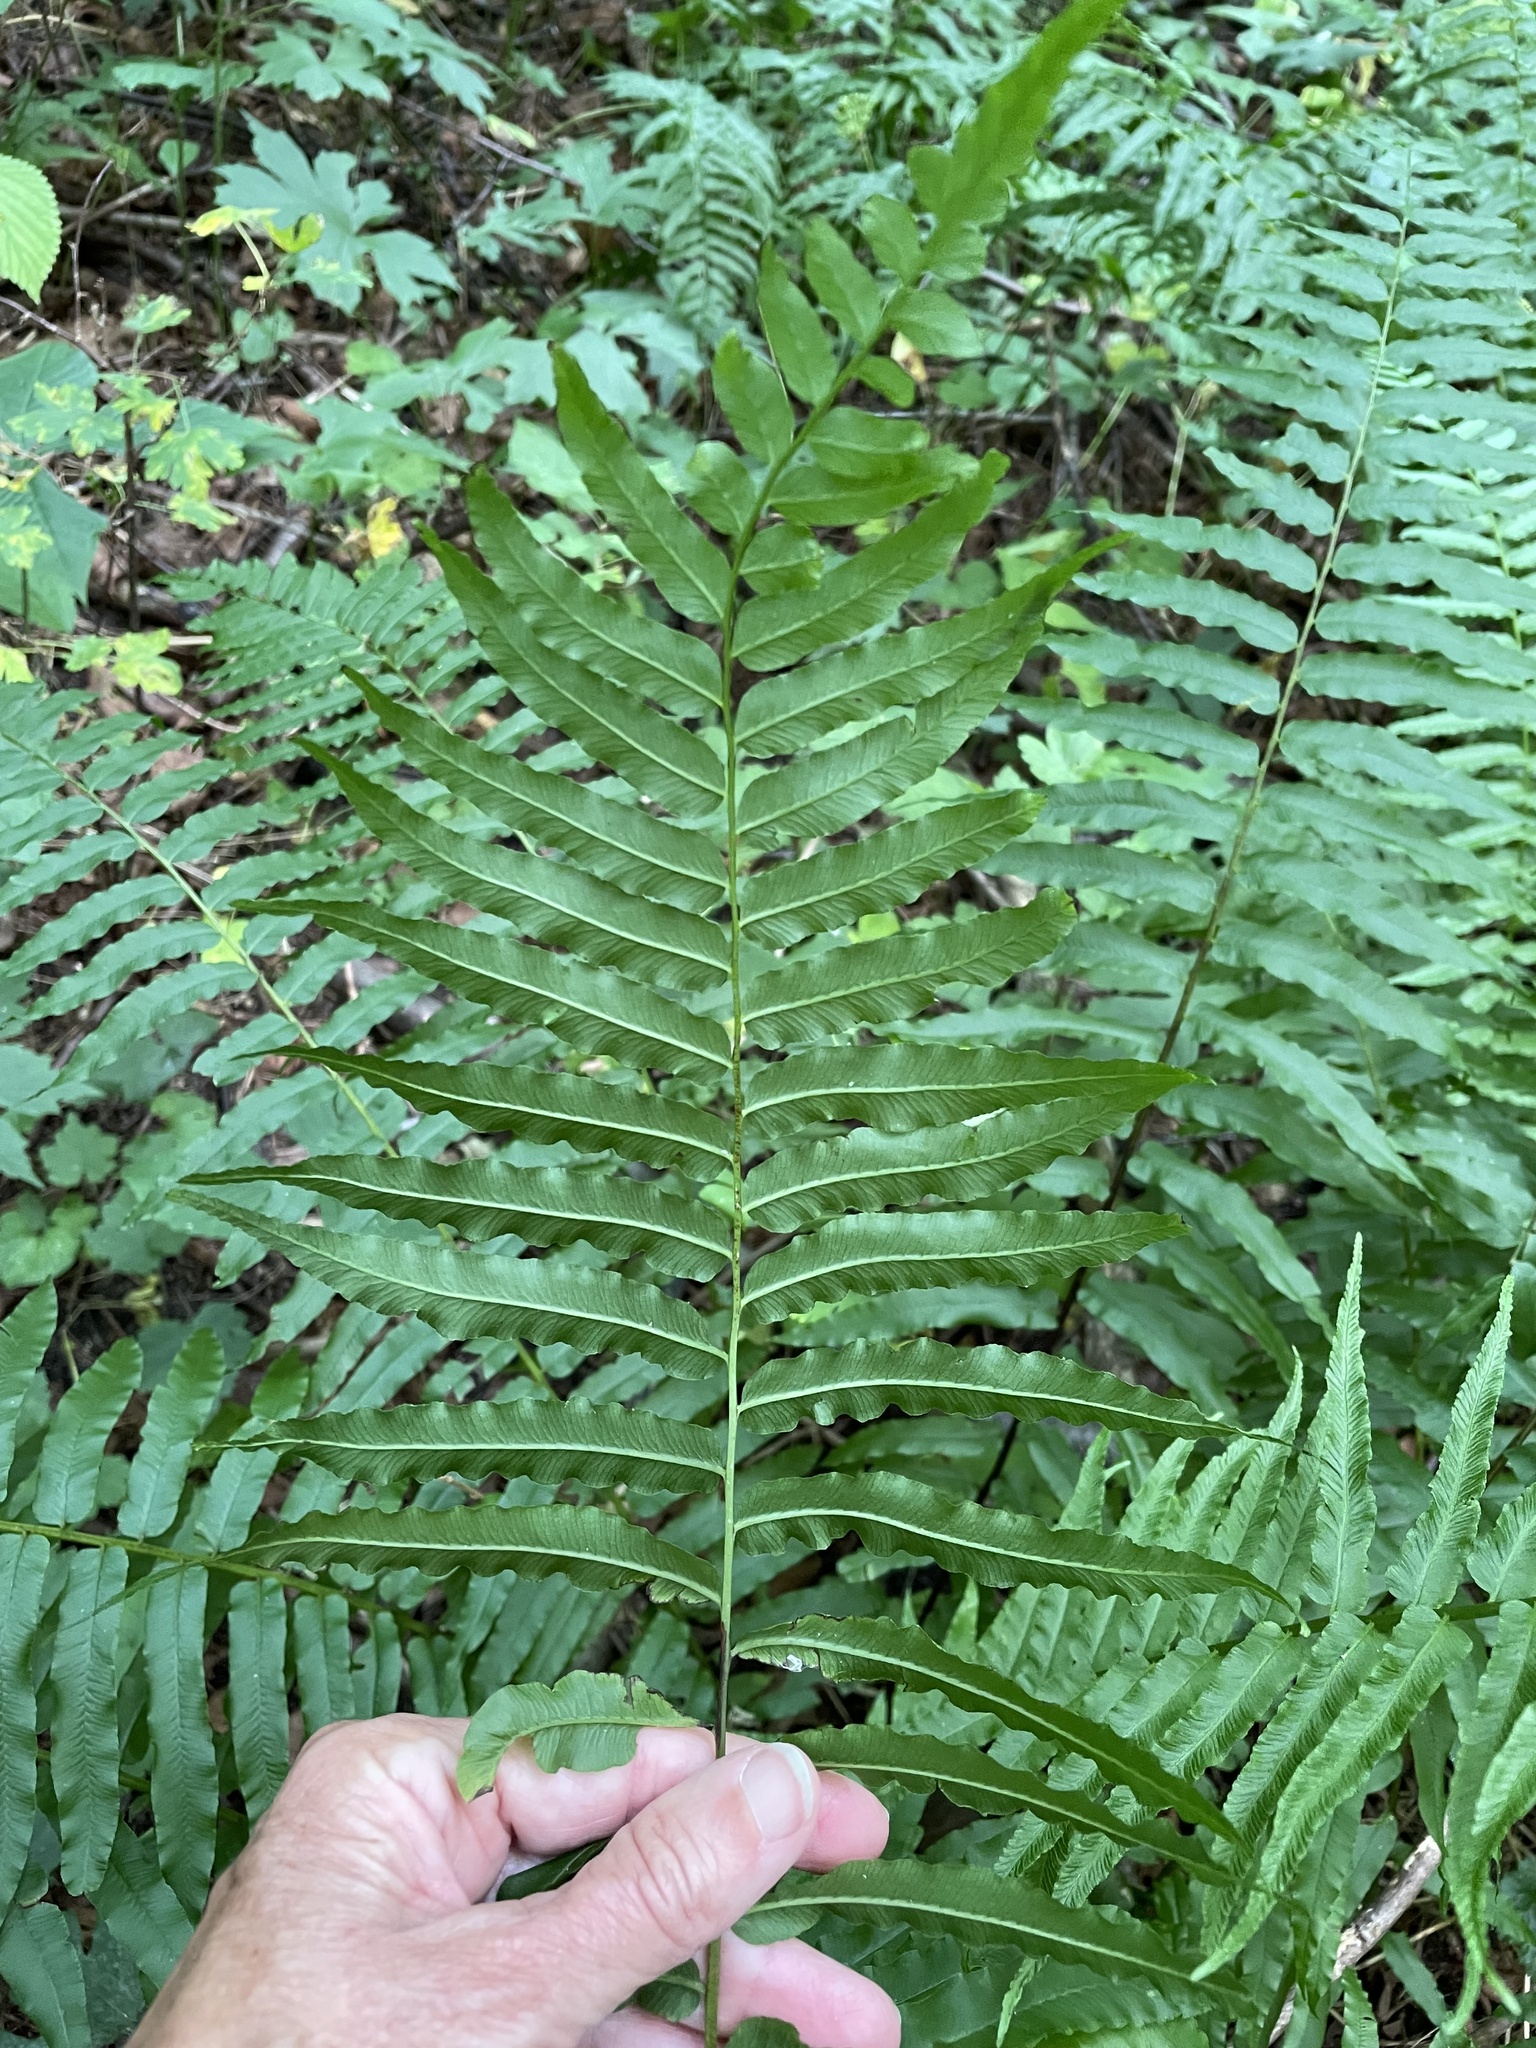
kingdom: Plantae
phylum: Tracheophyta
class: Polypodiopsida
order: Polypodiales
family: Diplaziopsidaceae
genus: Homalosorus
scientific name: Homalosorus pycnocarpos
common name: Glade fern
